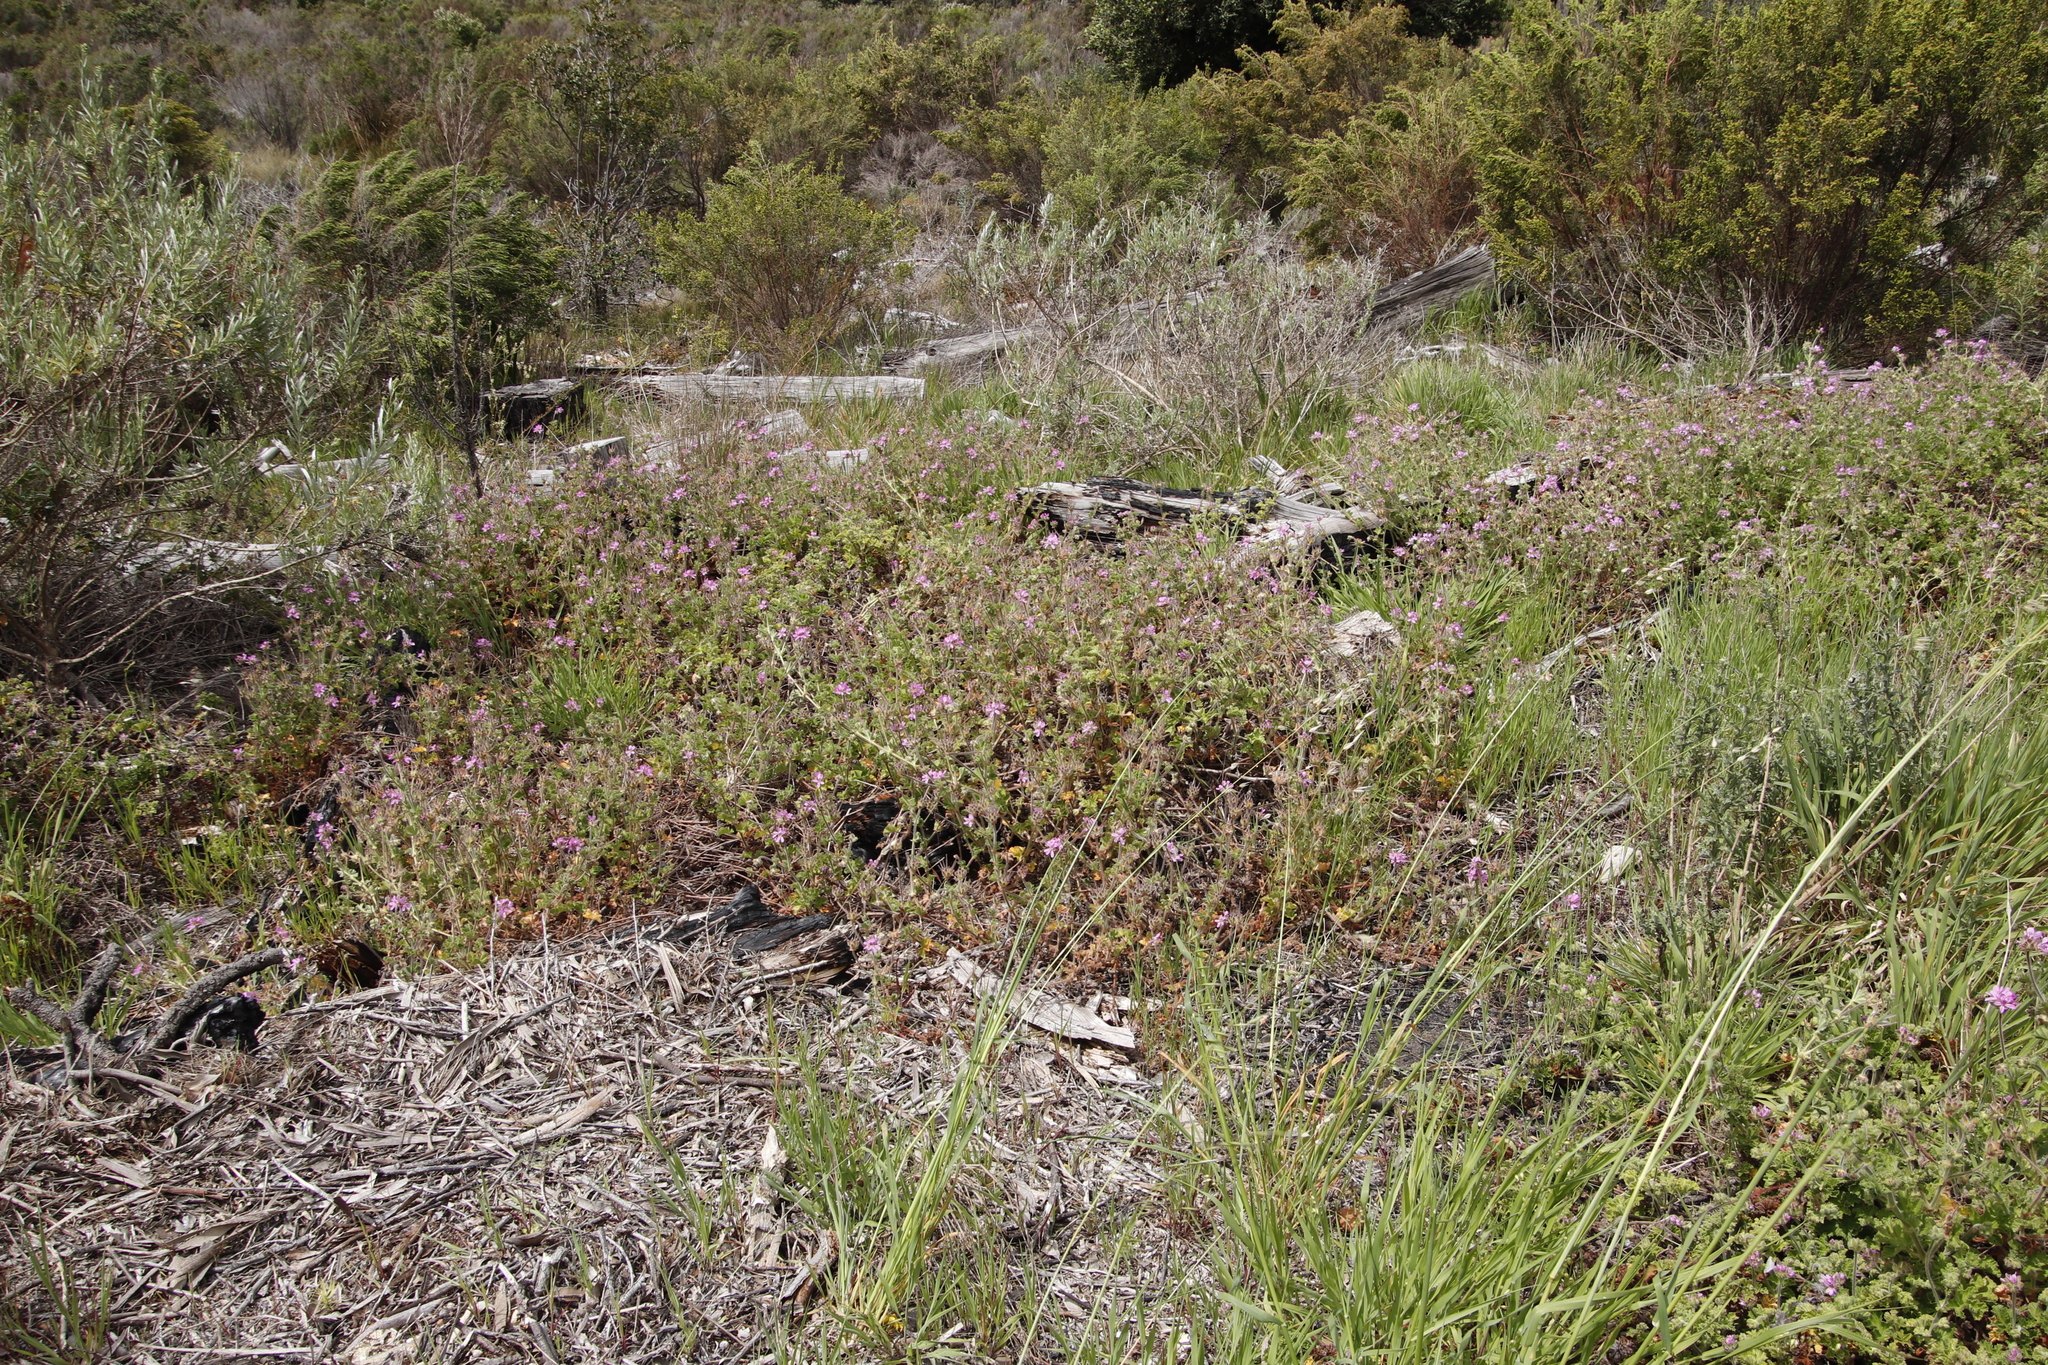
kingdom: Plantae
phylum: Tracheophyta
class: Magnoliopsida
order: Geraniales
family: Geraniaceae
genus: Pelargonium
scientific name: Pelargonium capitatum
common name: Rose scented geranium
